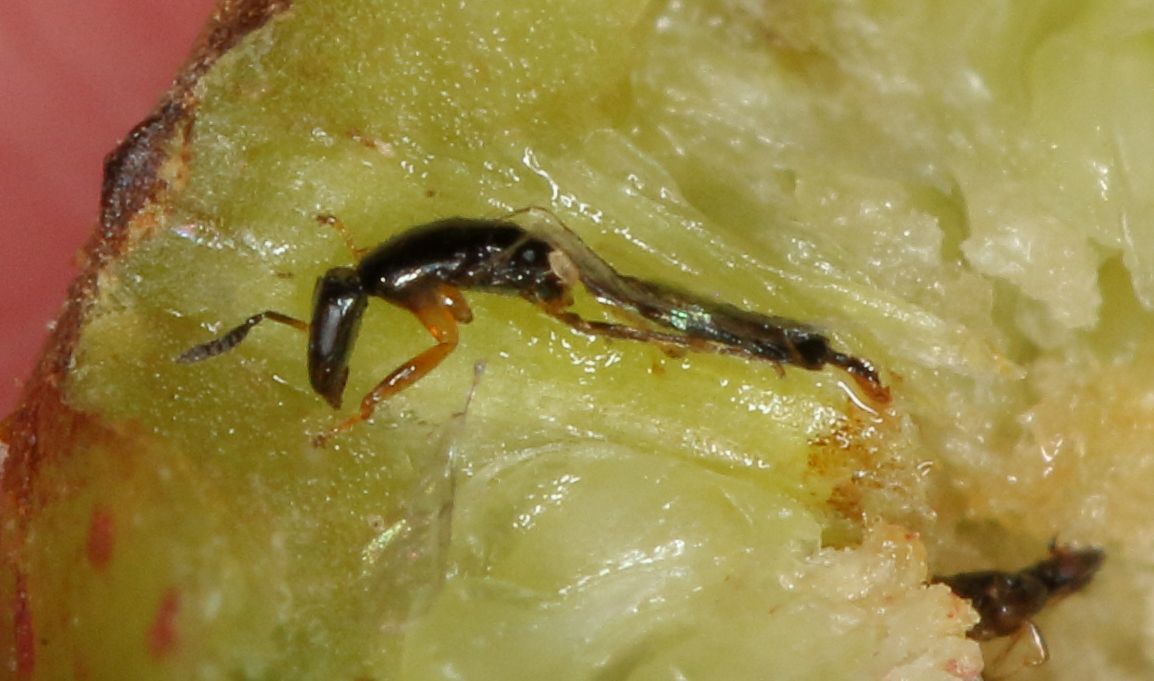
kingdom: Animalia
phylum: Arthropoda
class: Insecta
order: Hymenoptera
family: Agaonidae
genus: Seres
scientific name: Seres
